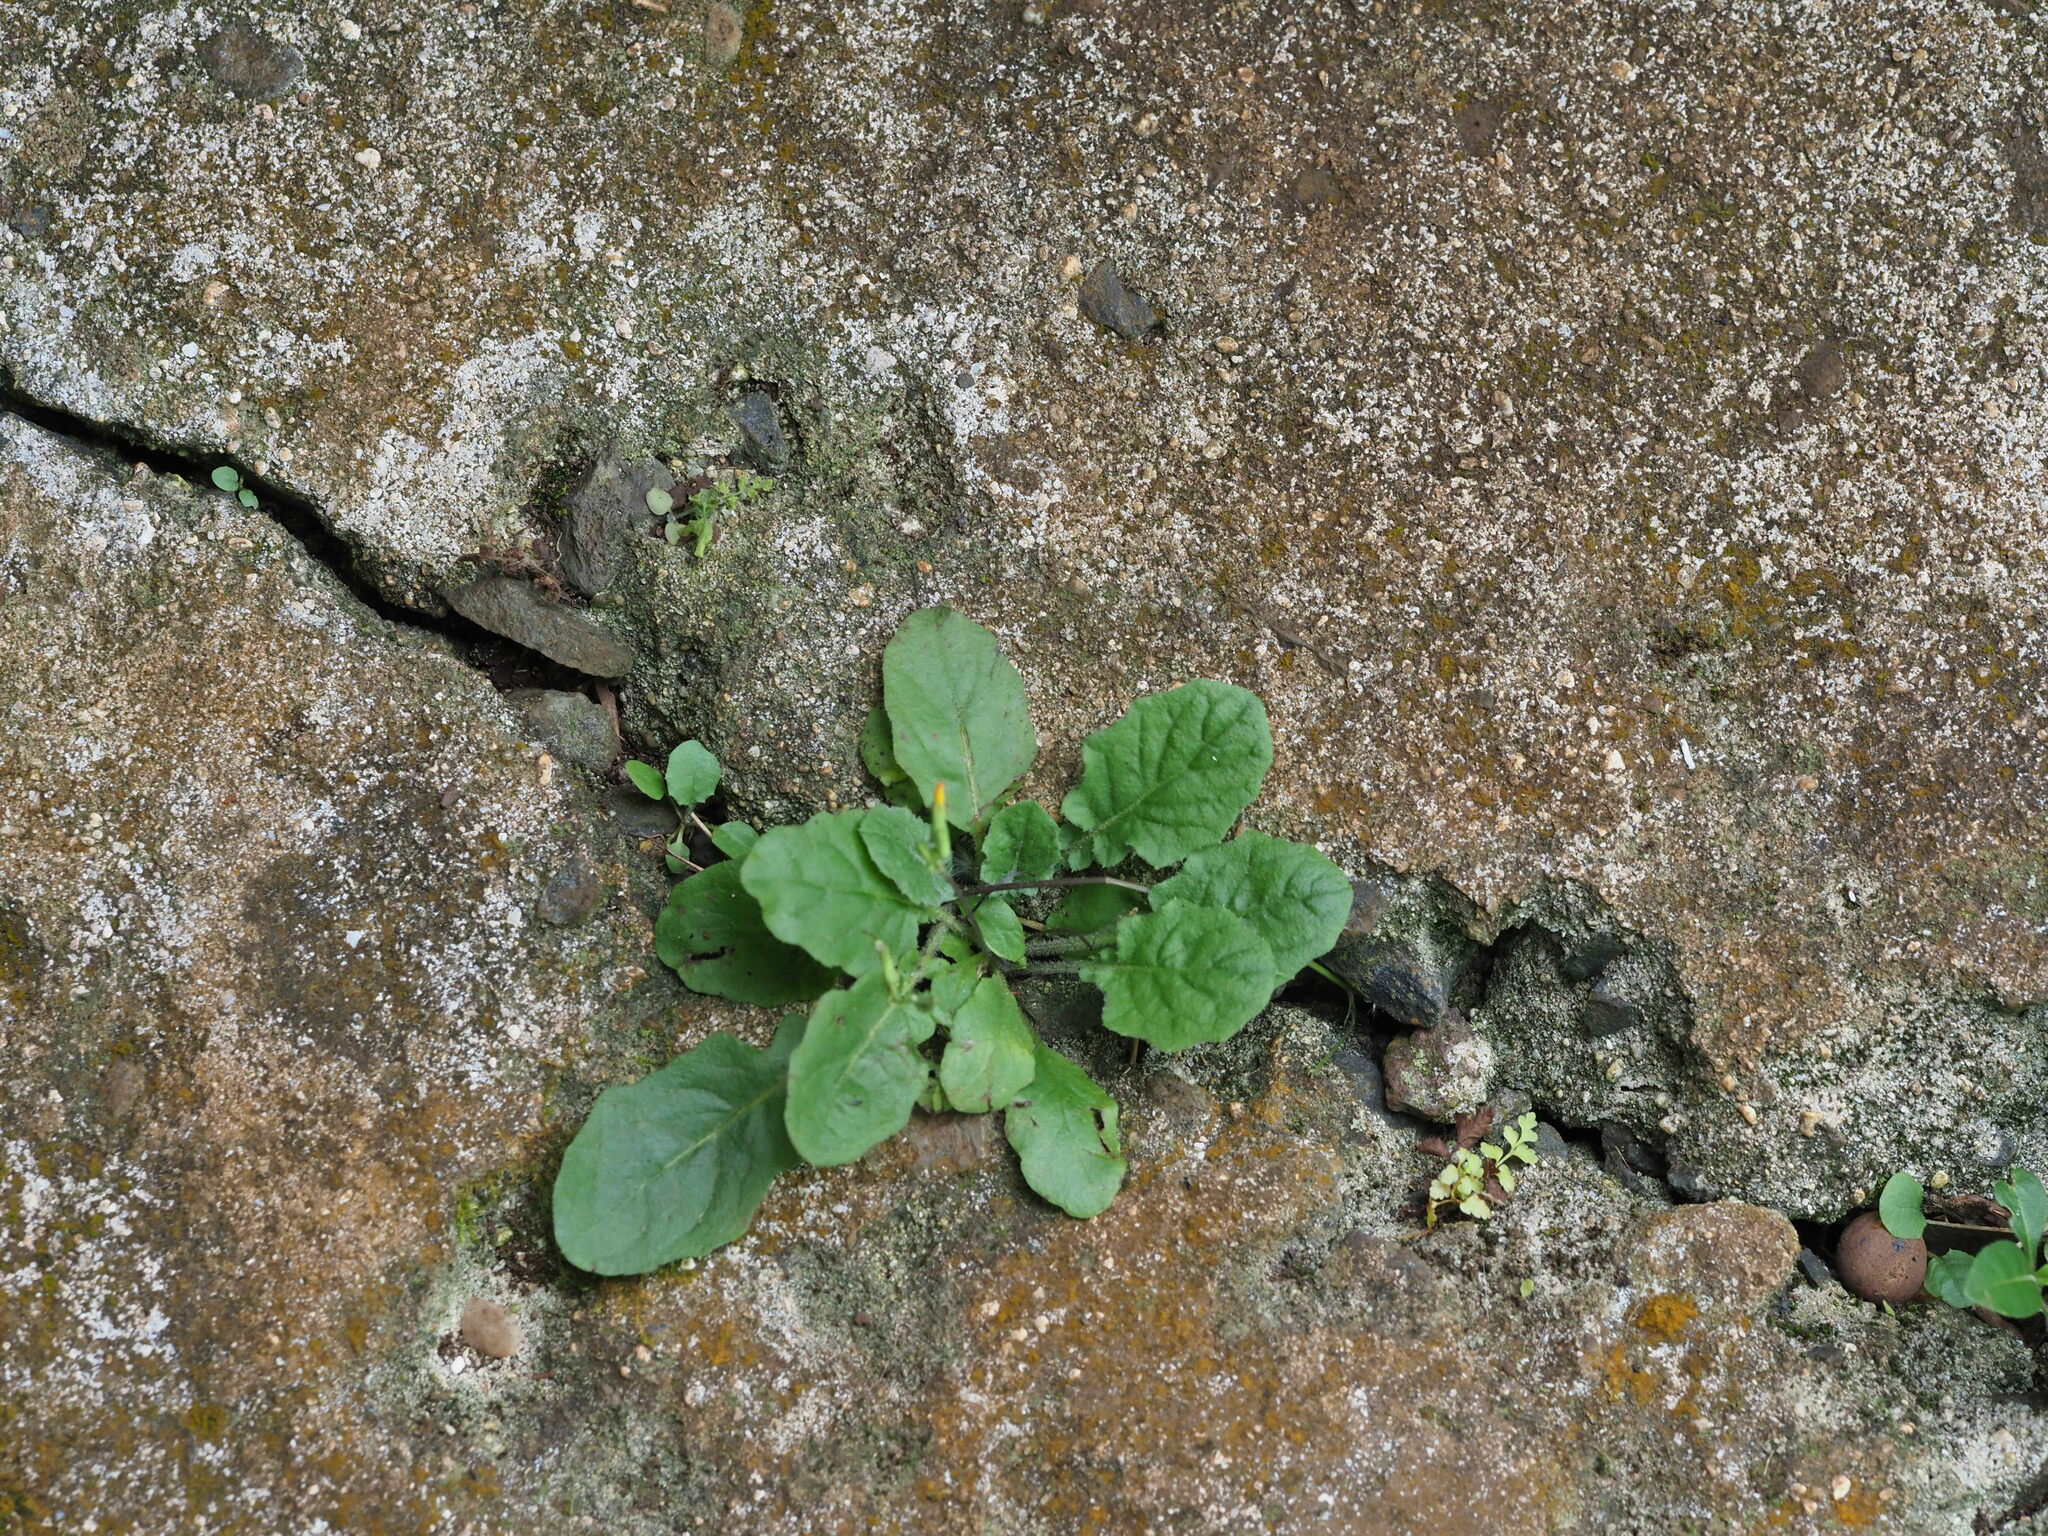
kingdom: Plantae
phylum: Tracheophyta
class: Magnoliopsida
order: Asterales
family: Asteraceae
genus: Youngia
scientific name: Youngia japonica
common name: Oriental false hawksbeard
